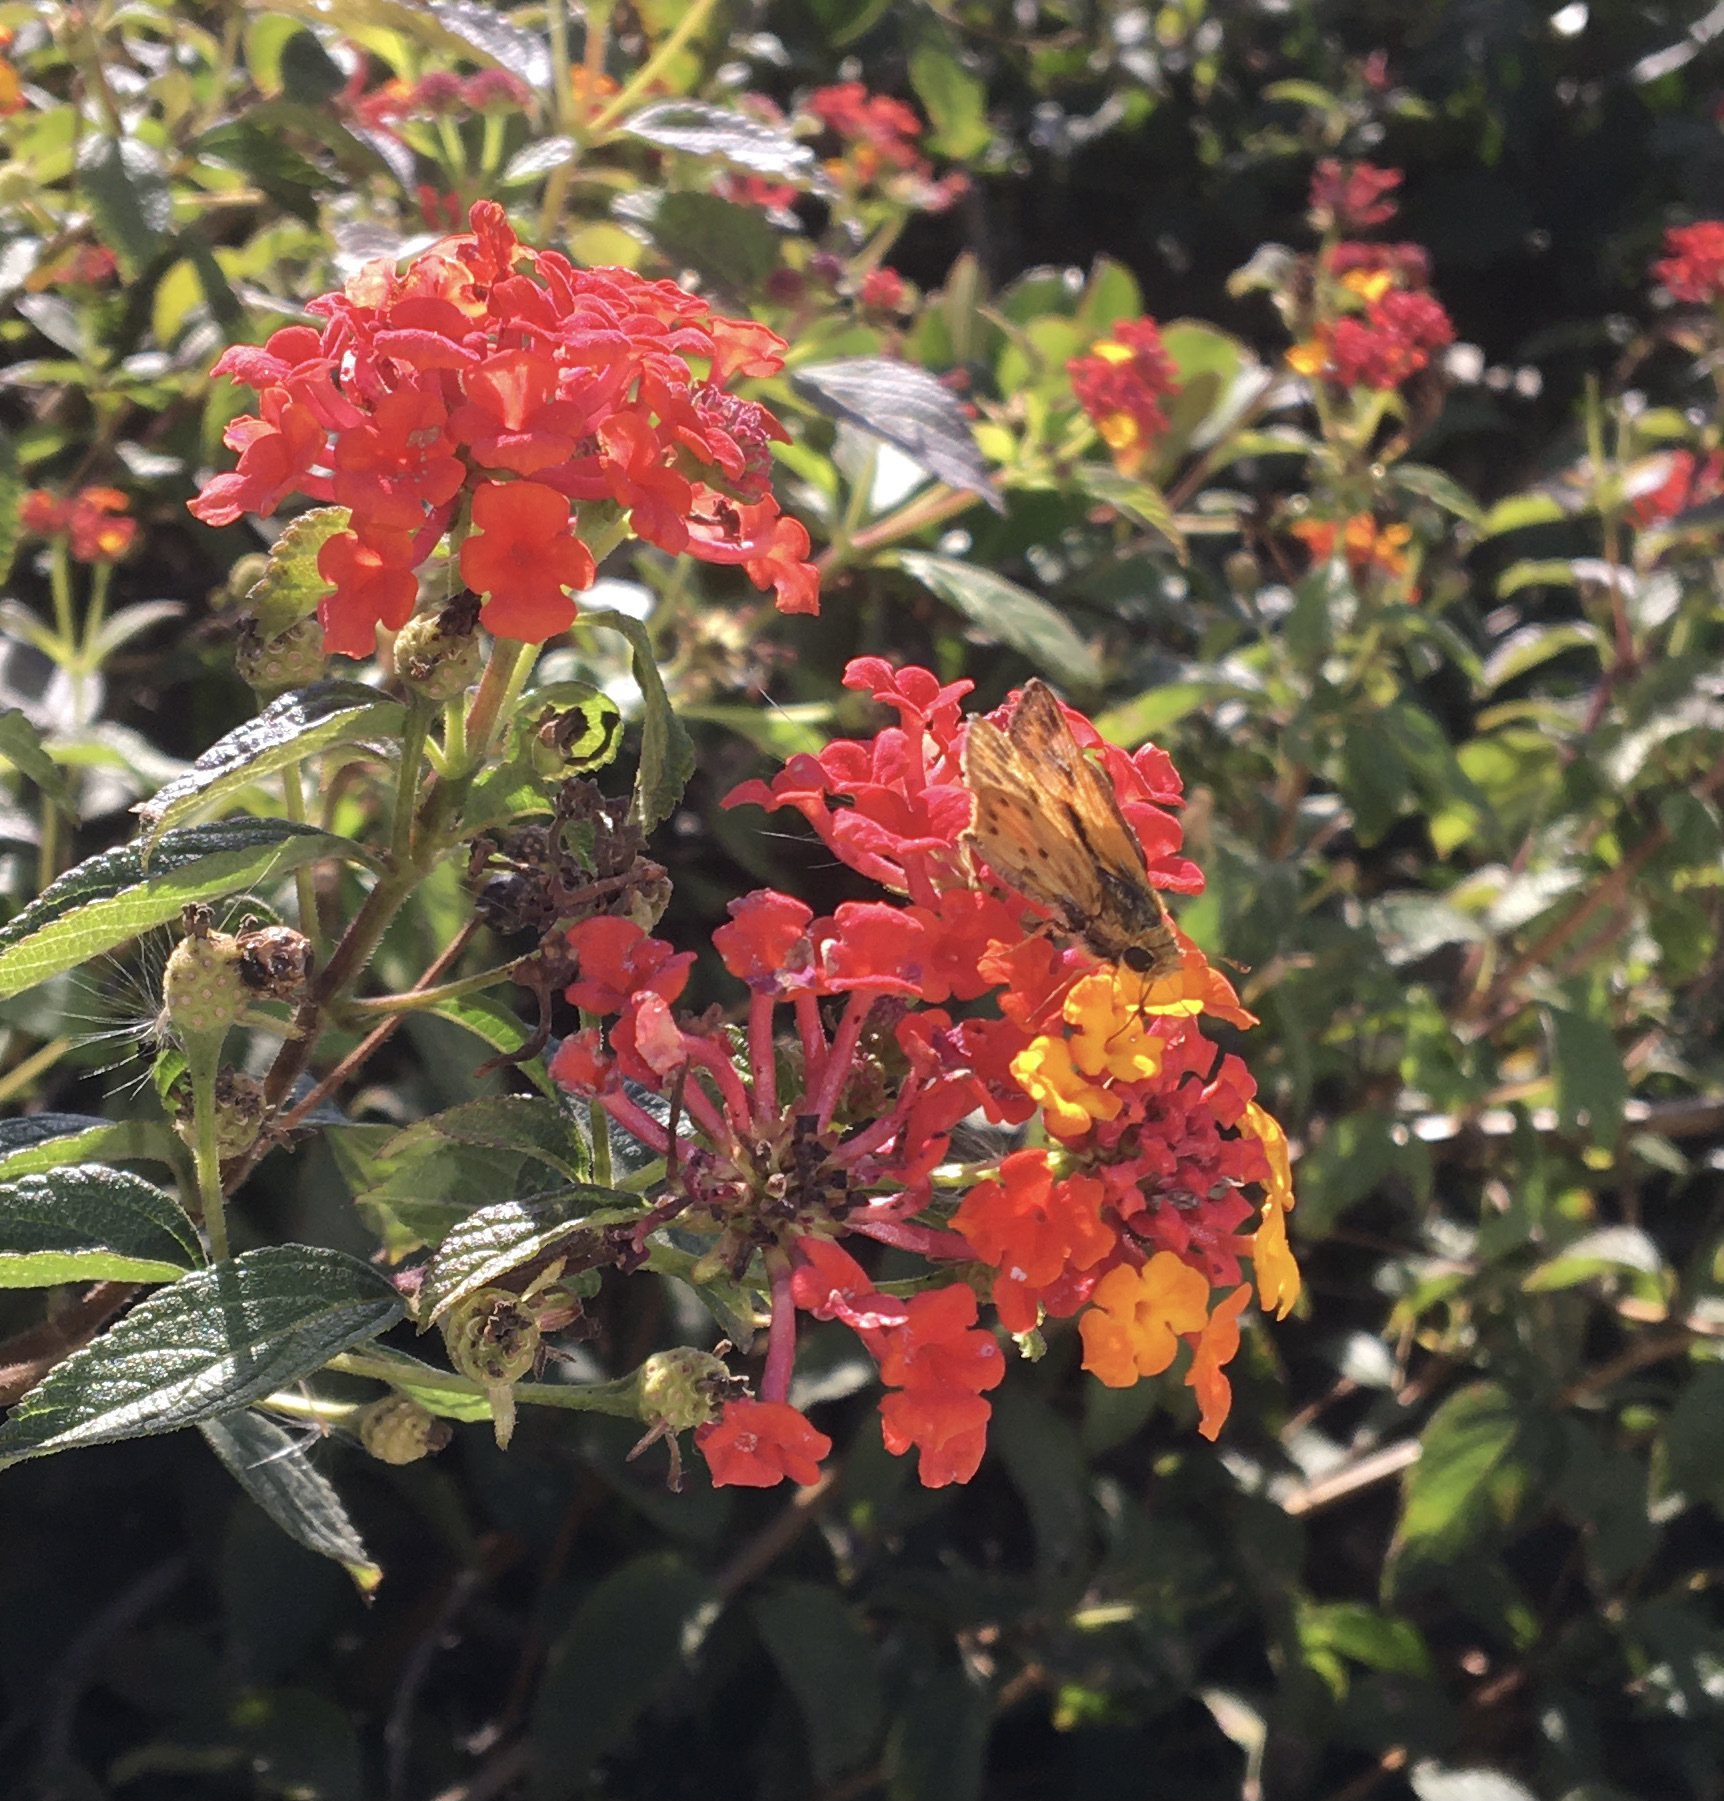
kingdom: Animalia
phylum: Arthropoda
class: Insecta
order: Lepidoptera
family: Hesperiidae
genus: Hylephila
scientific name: Hylephila phyleus
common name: Fiery skipper
